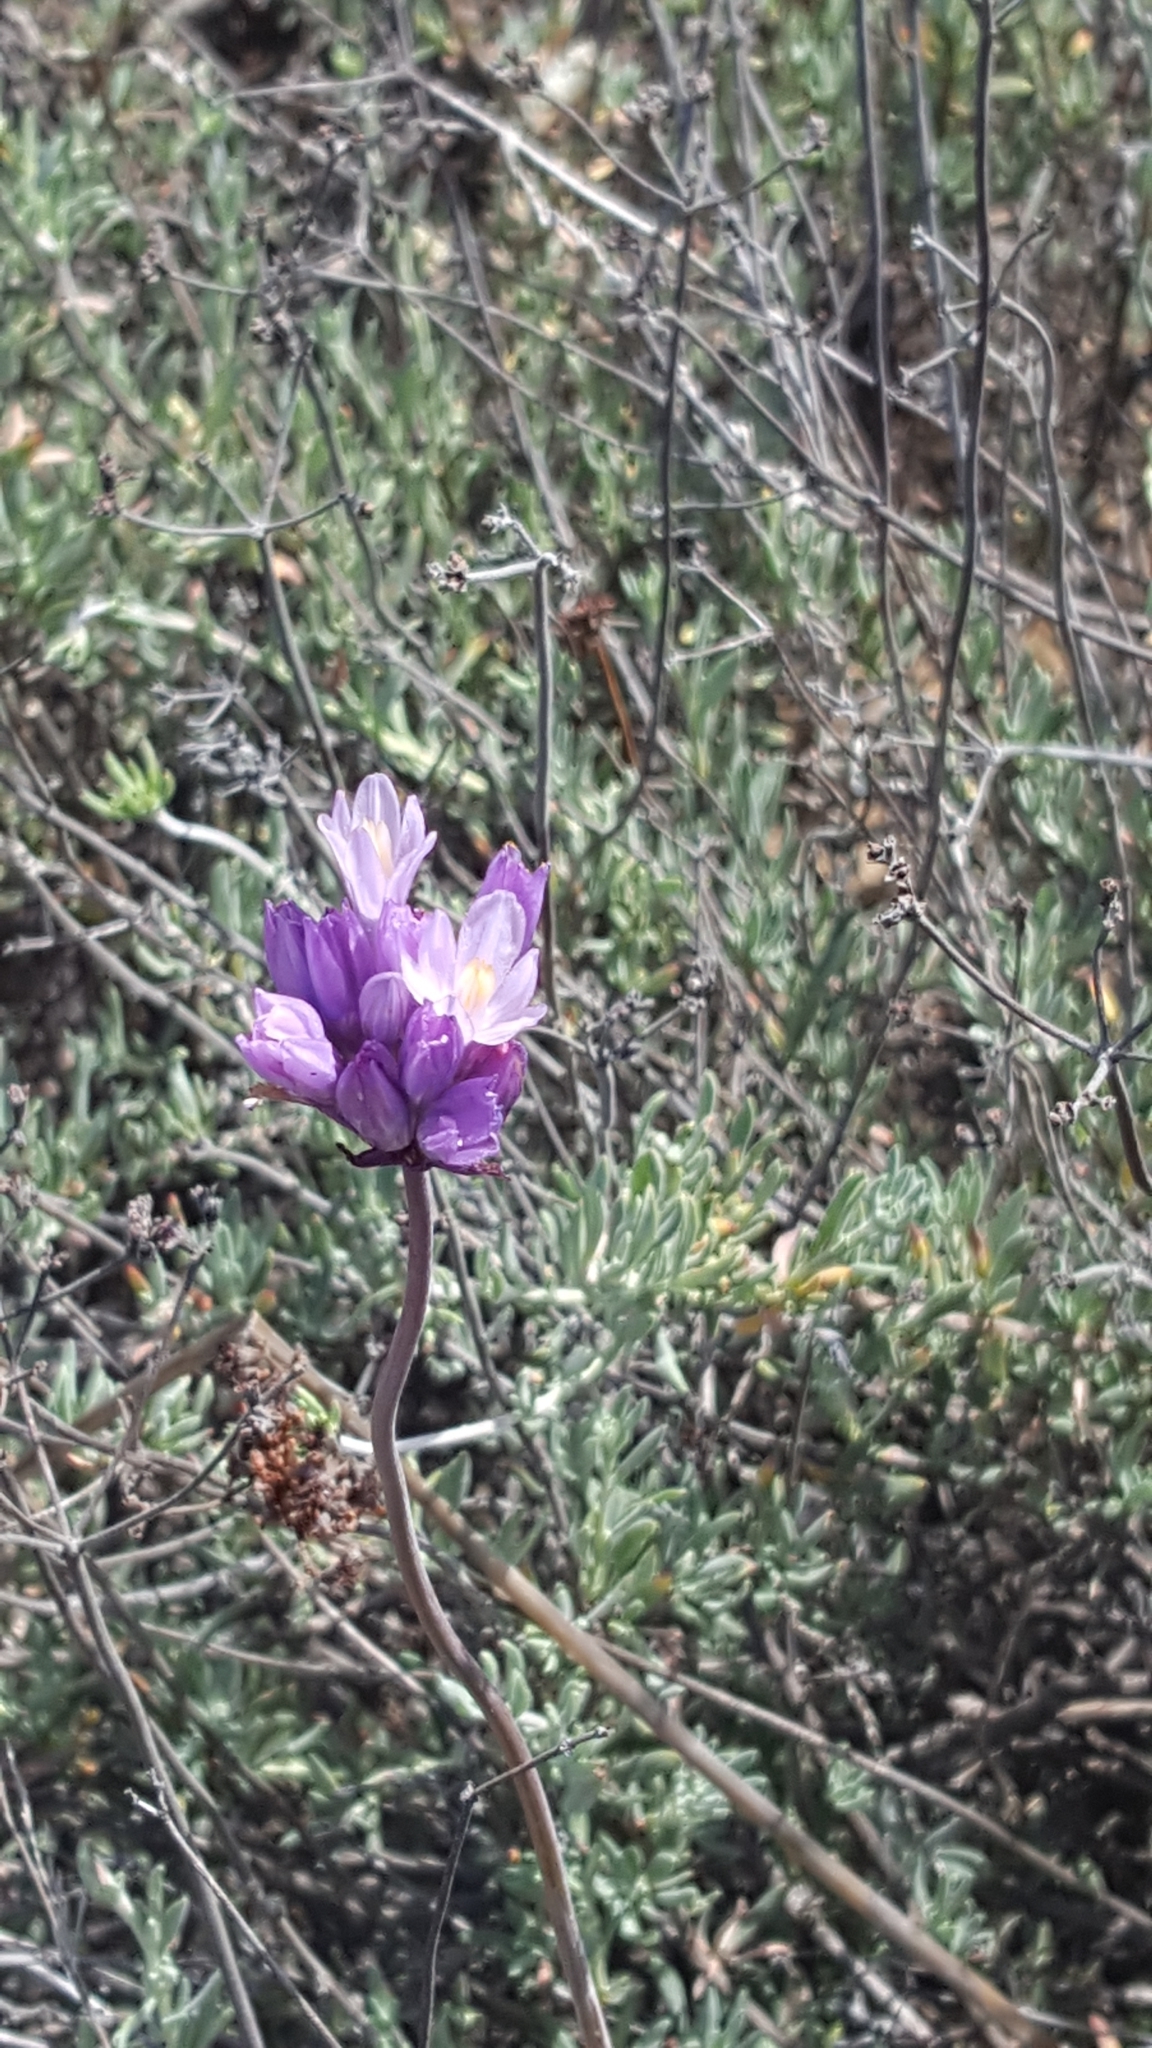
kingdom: Plantae
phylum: Tracheophyta
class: Liliopsida
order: Asparagales
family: Asparagaceae
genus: Dipterostemon
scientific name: Dipterostemon capitatus
